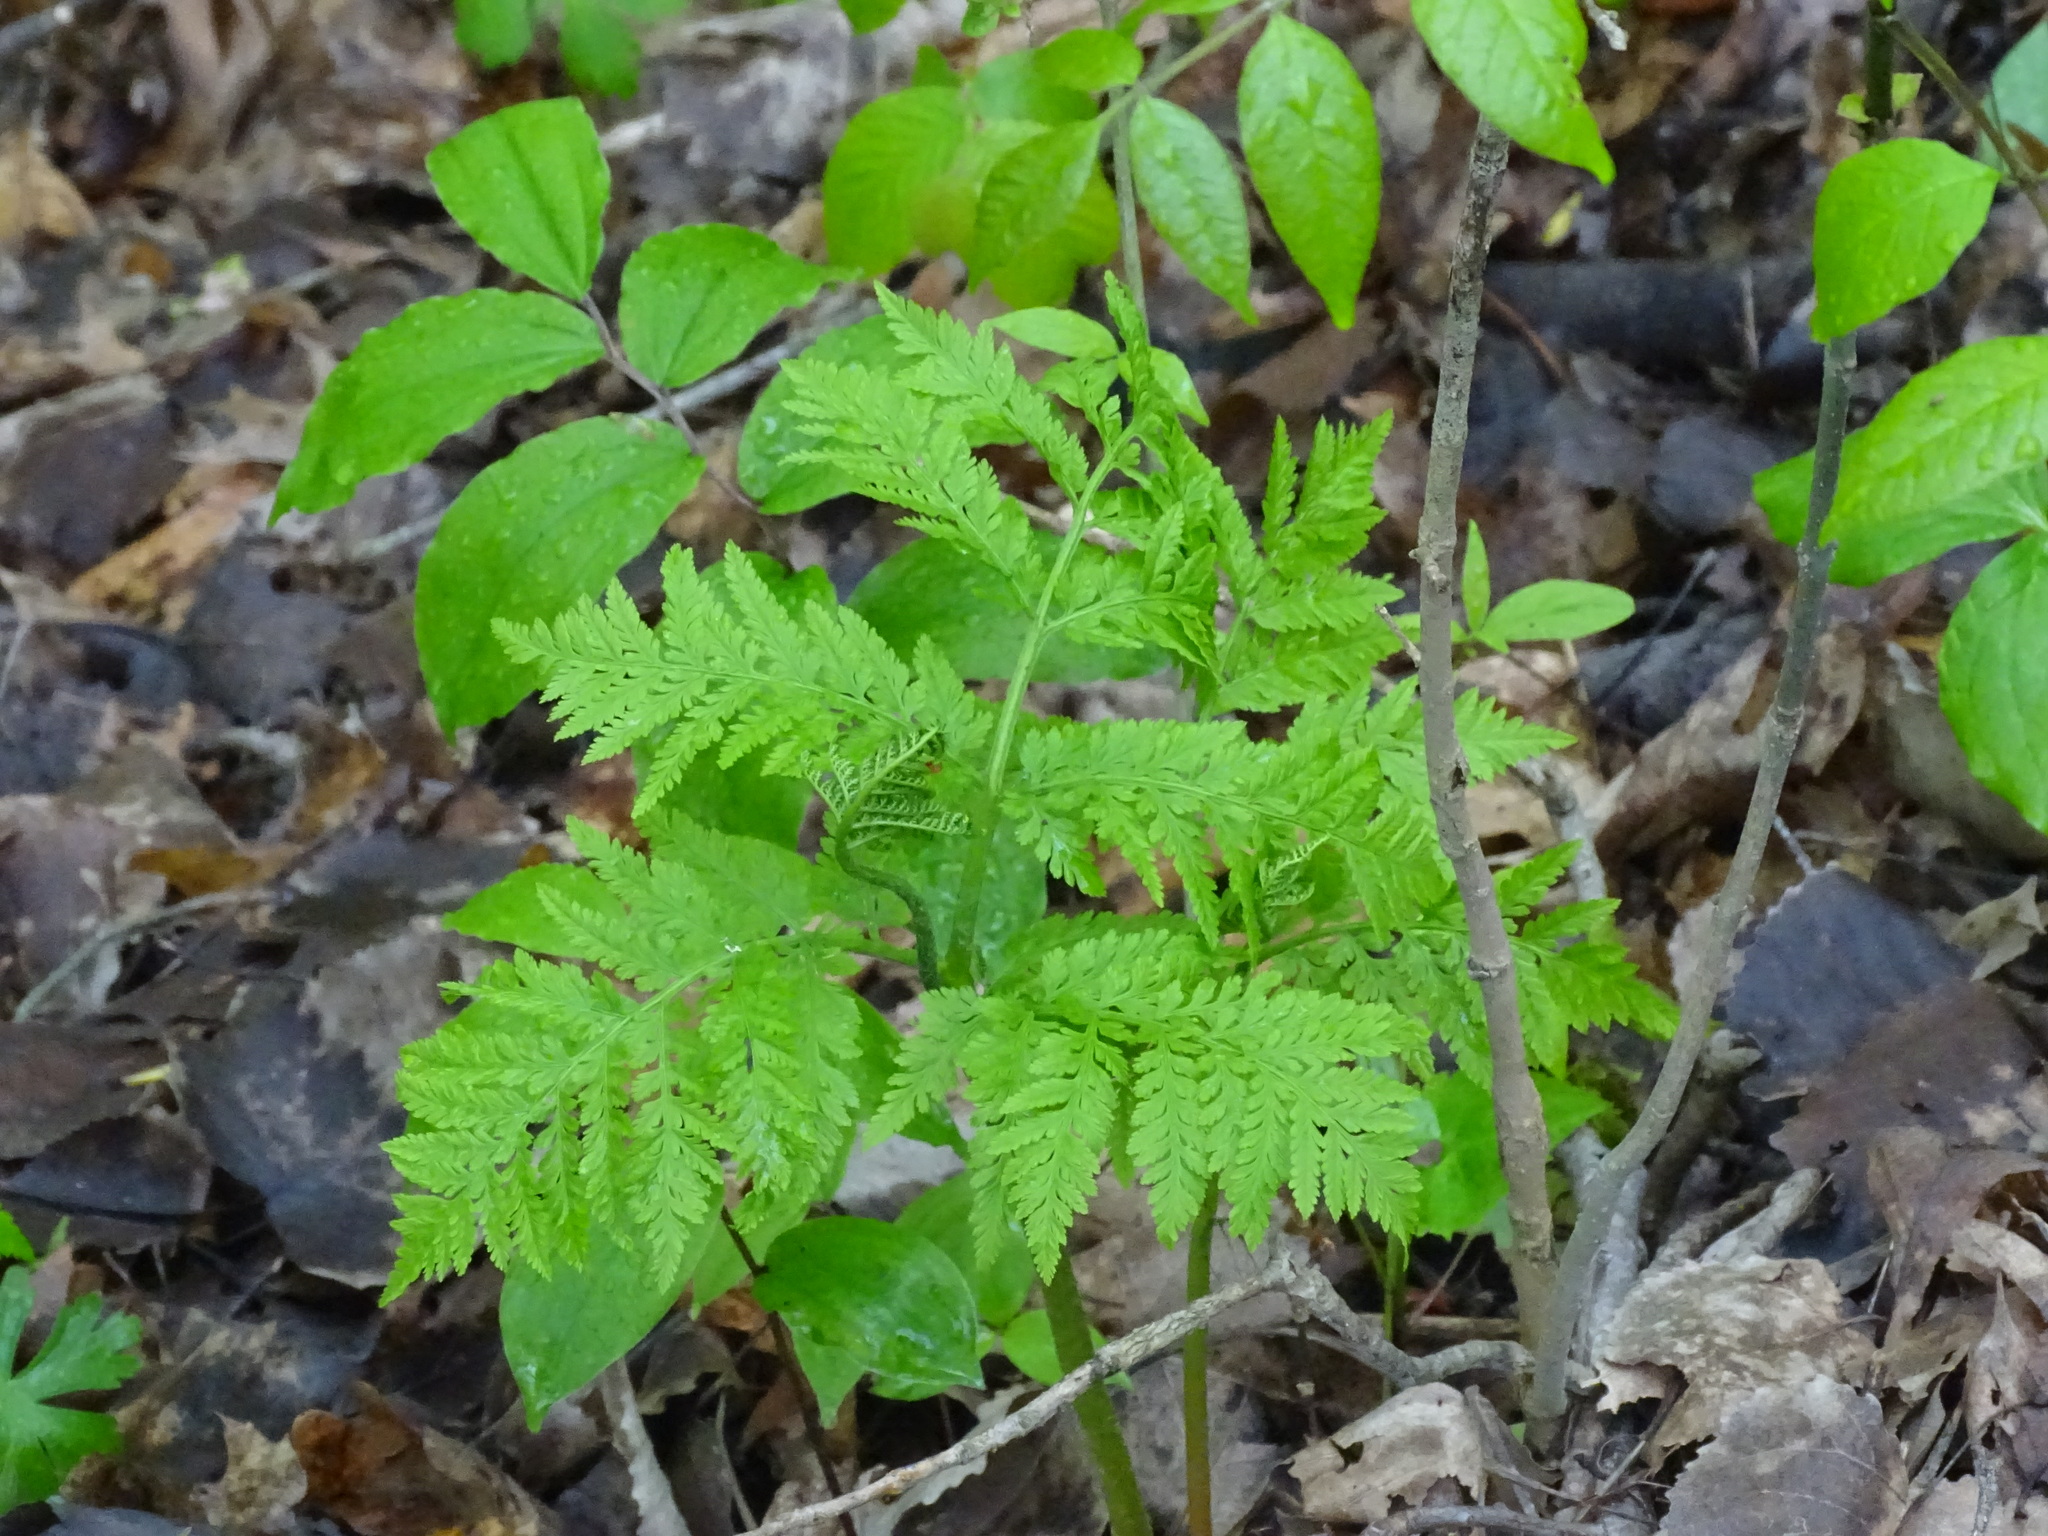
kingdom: Plantae
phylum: Tracheophyta
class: Polypodiopsida
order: Ophioglossales
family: Ophioglossaceae
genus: Botrypus
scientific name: Botrypus virginianus
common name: Common grapefern
